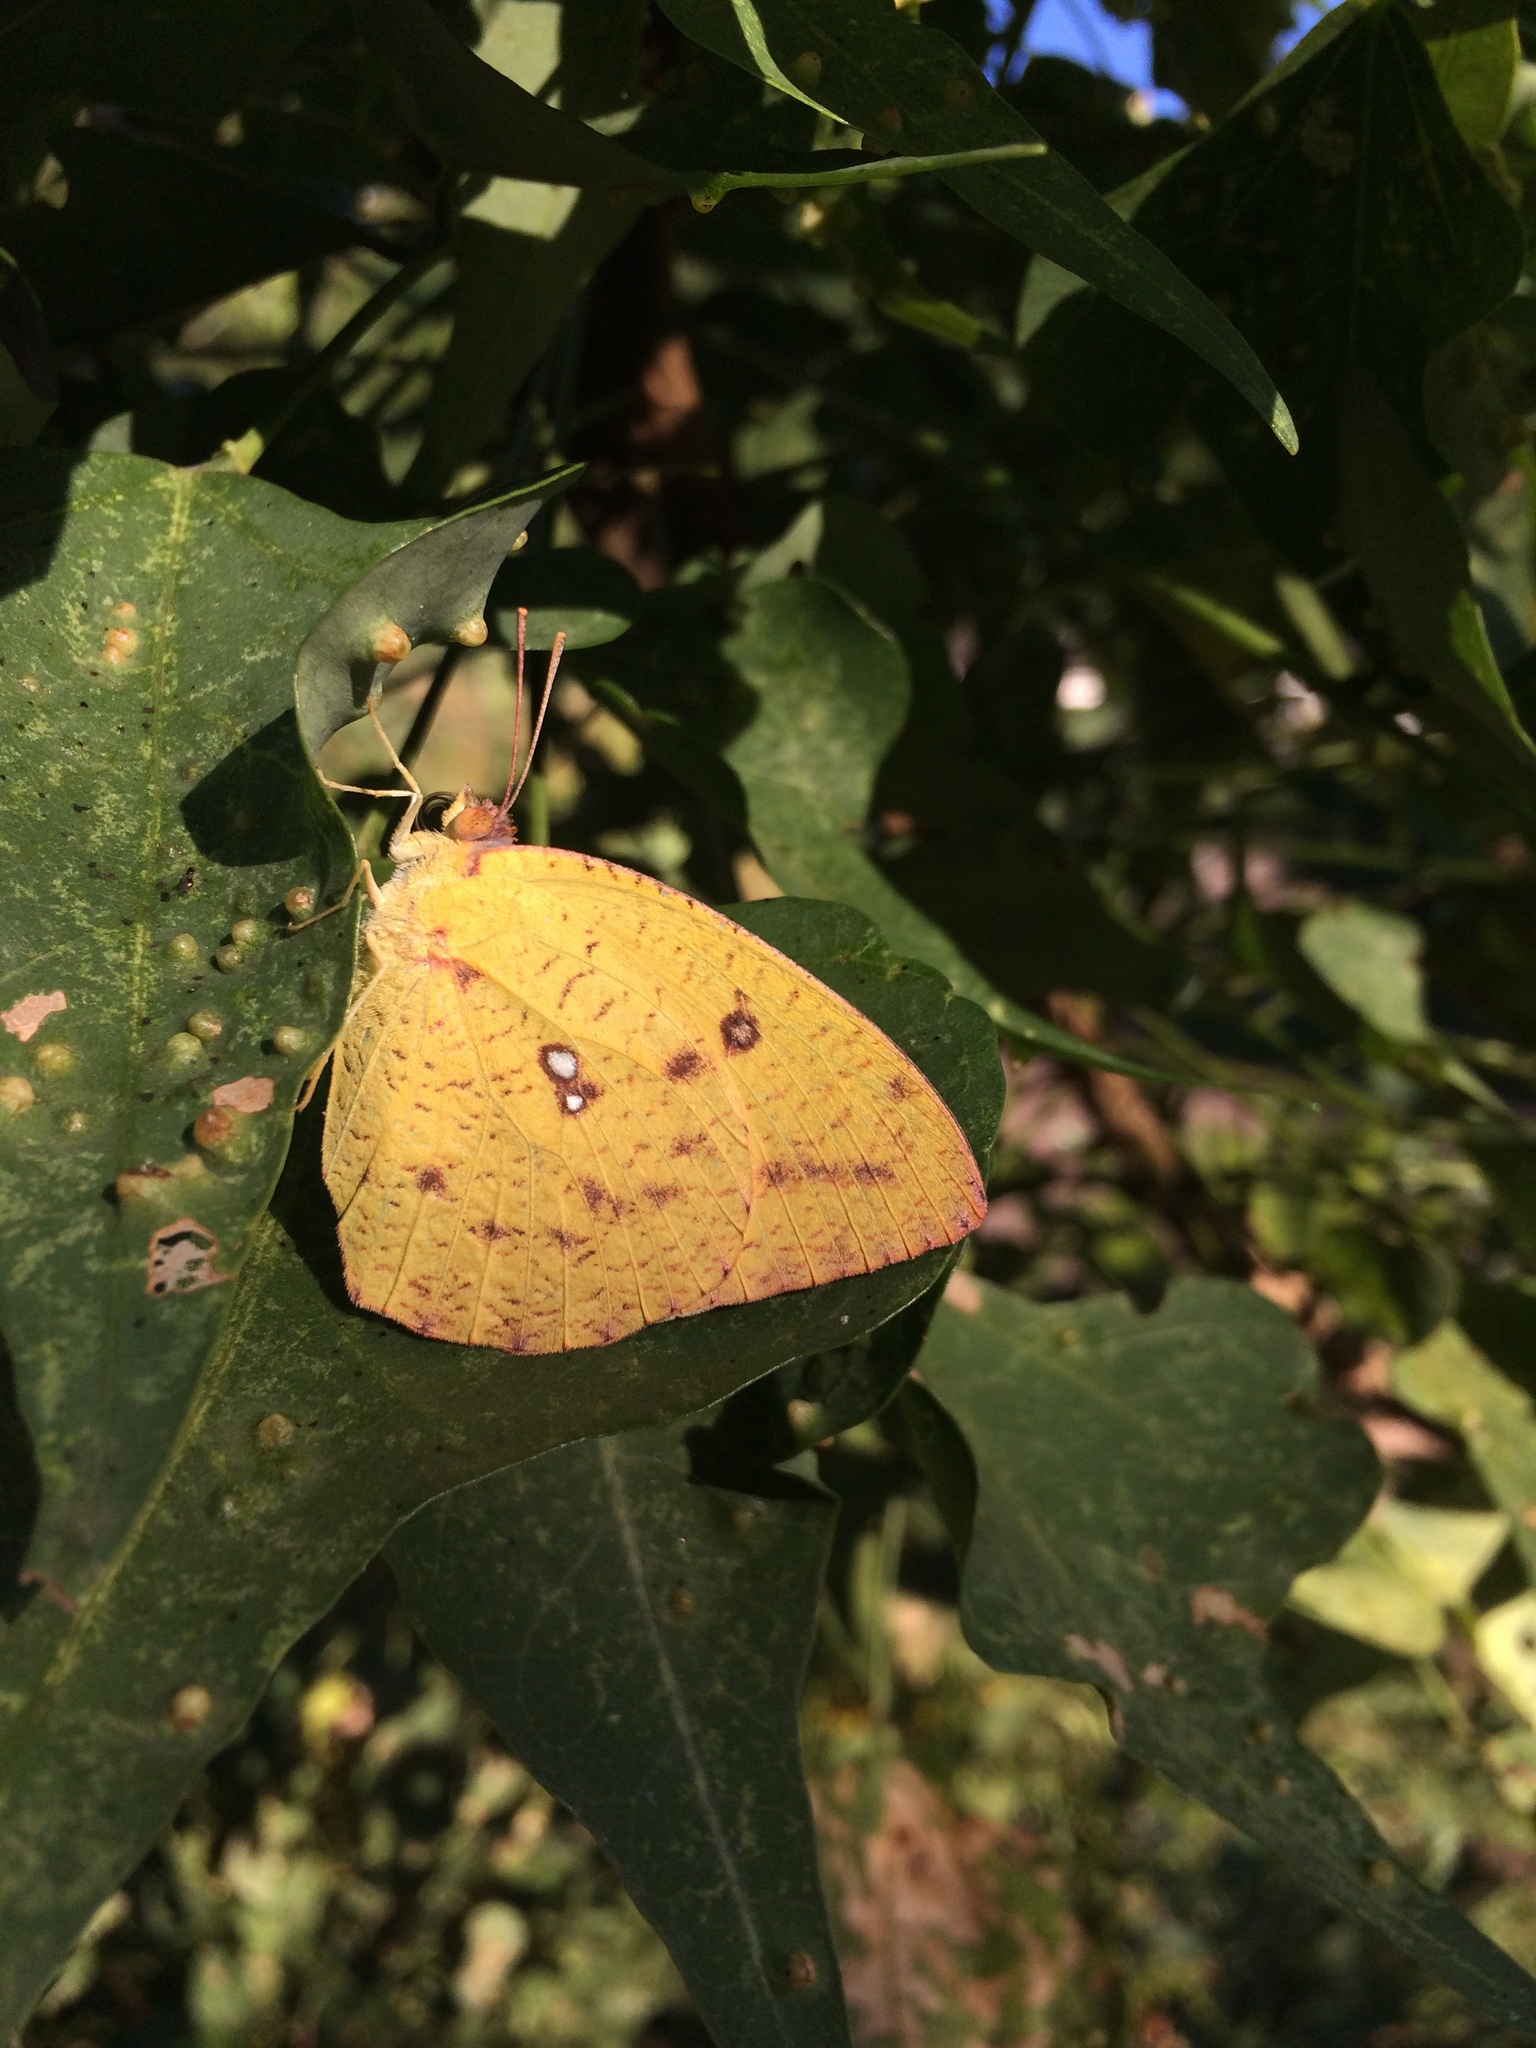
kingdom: Animalia
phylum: Arthropoda
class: Insecta
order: Lepidoptera
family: Pieridae
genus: Catopsilia
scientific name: Catopsilia florella
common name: African migrant
